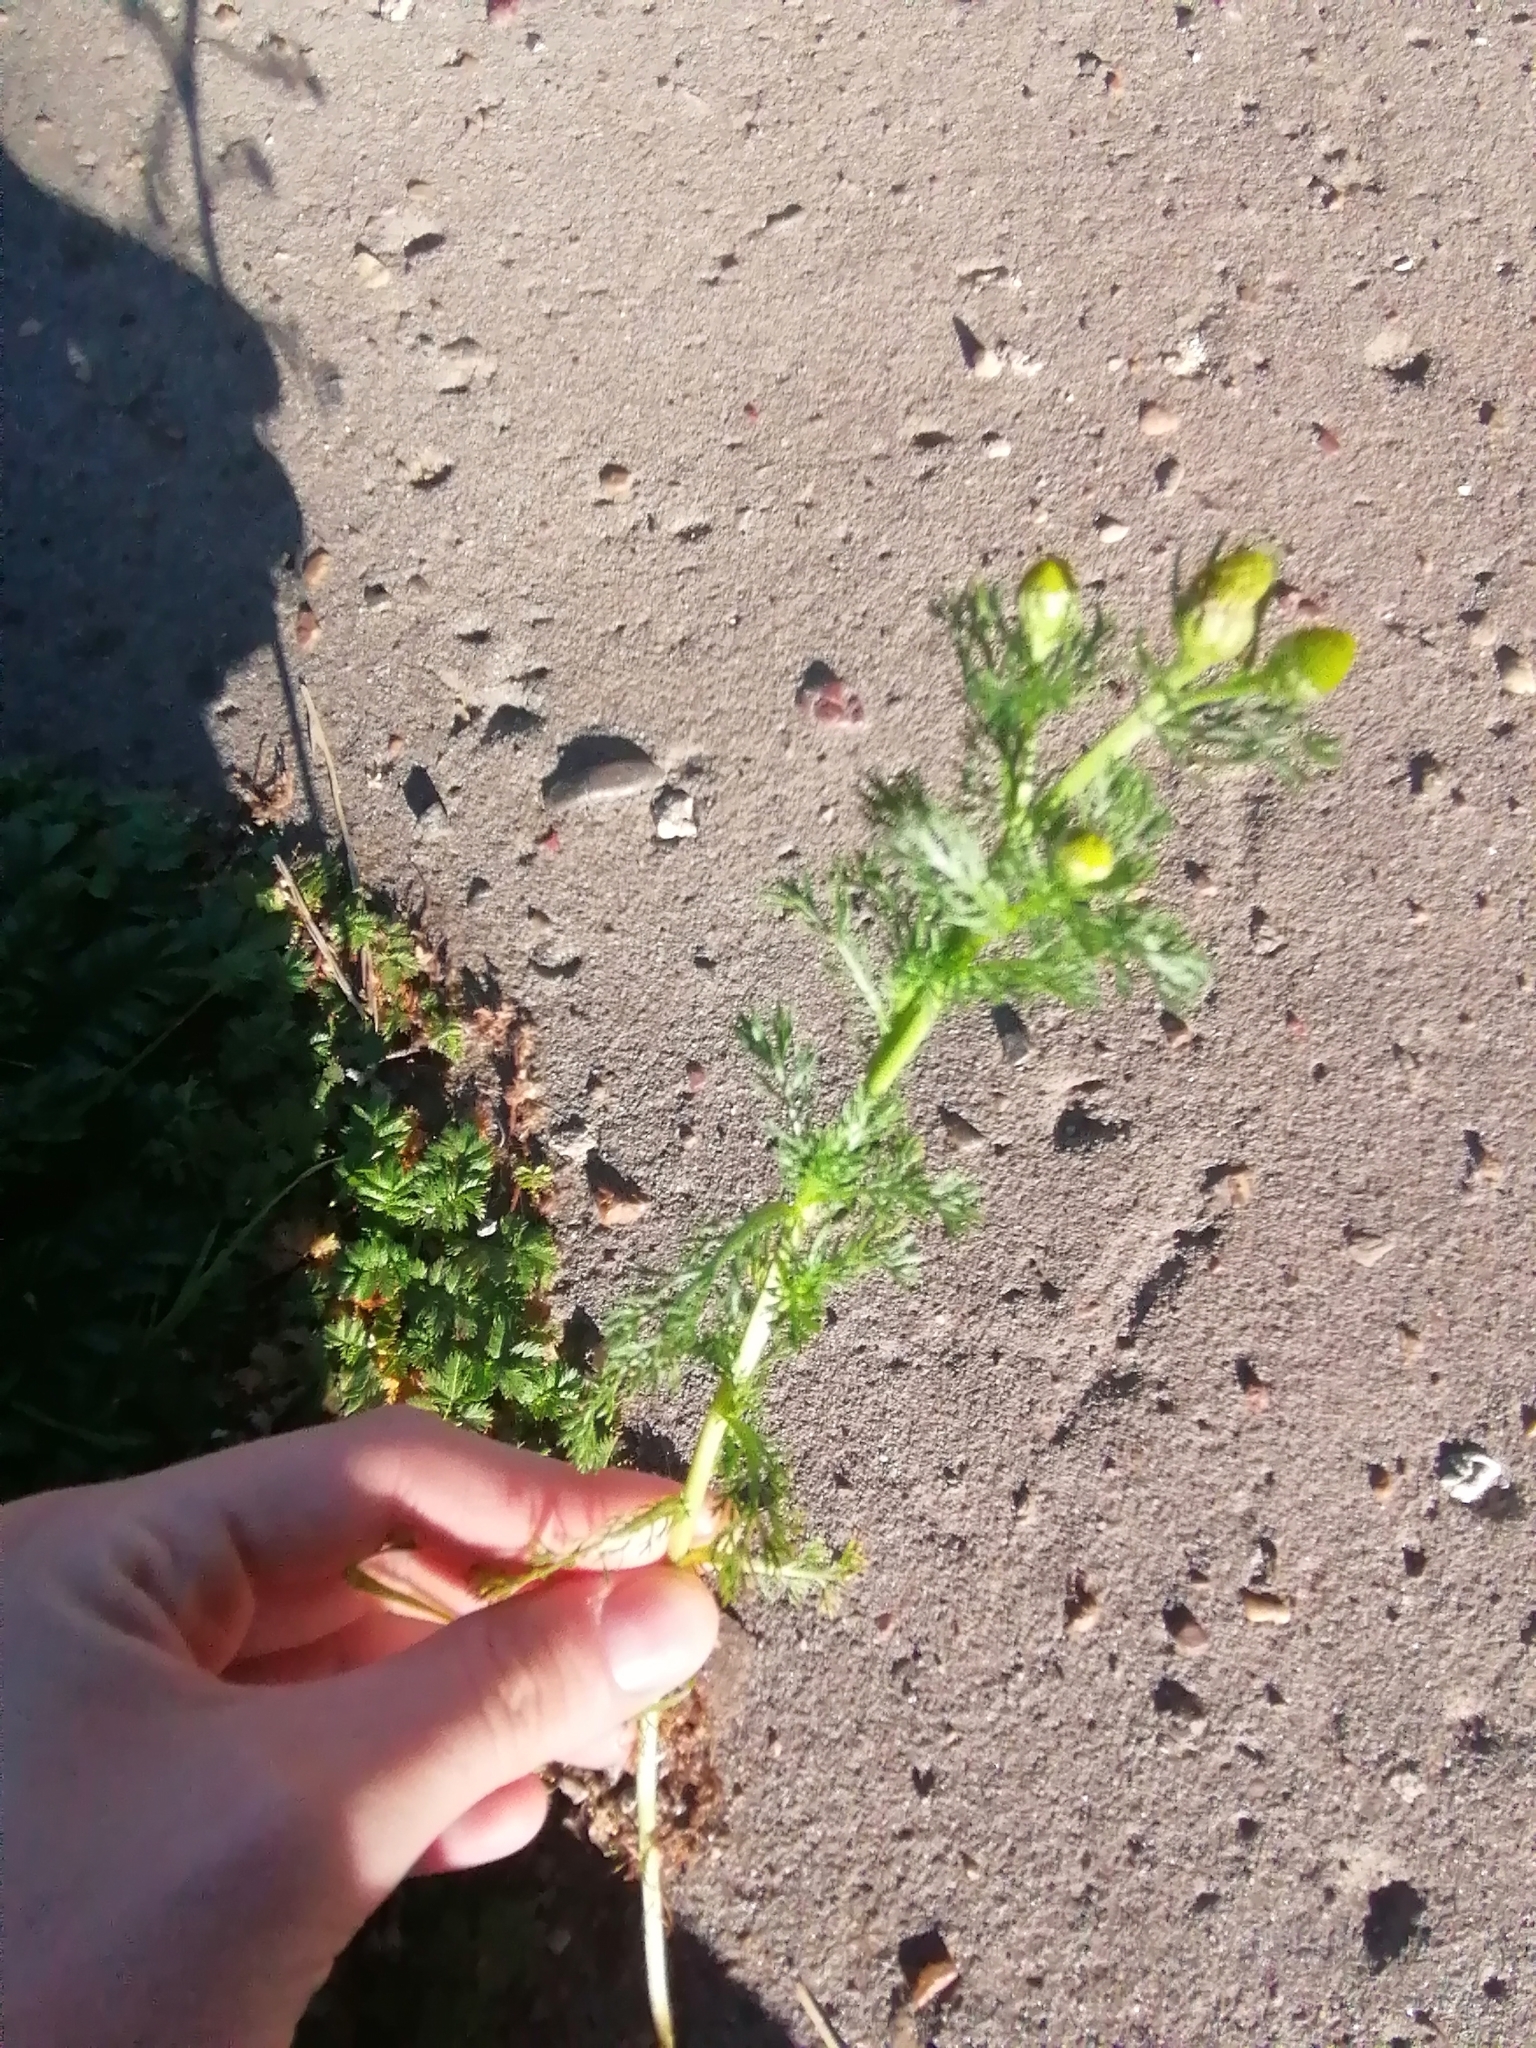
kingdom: Plantae
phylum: Tracheophyta
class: Magnoliopsida
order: Asterales
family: Asteraceae
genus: Matricaria
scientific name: Matricaria discoidea
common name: Disc mayweed
